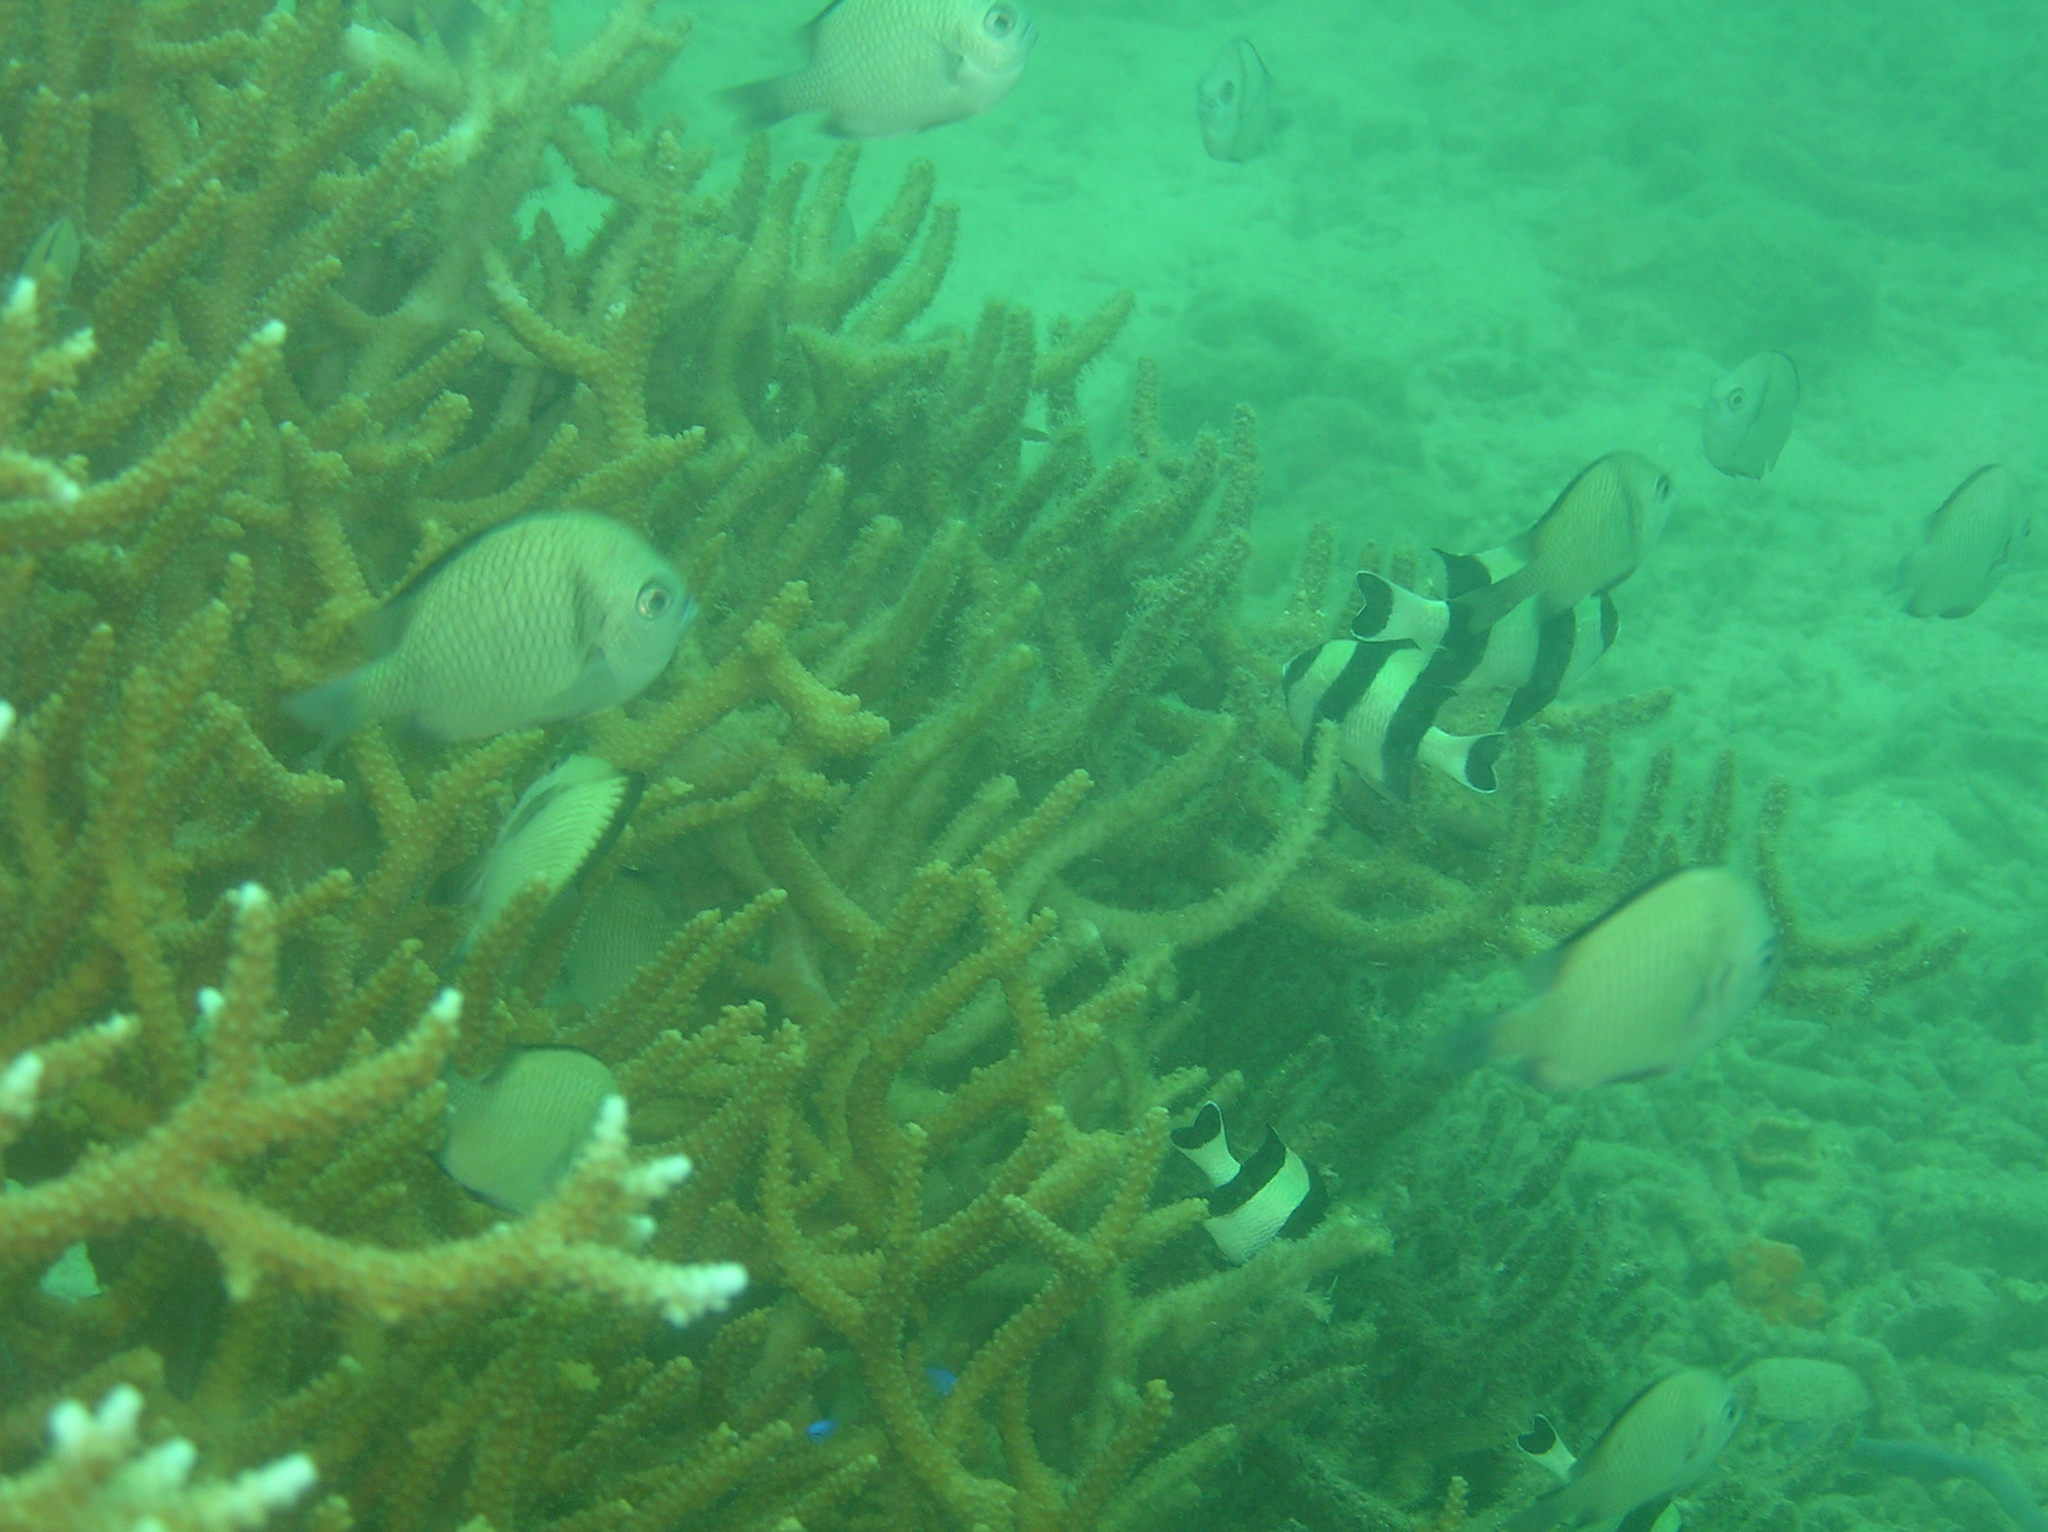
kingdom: Animalia
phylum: Chordata
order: Perciformes
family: Pomacentridae
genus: Dascyllus
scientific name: Dascyllus reticulatus
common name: Reticulated dascyllus
